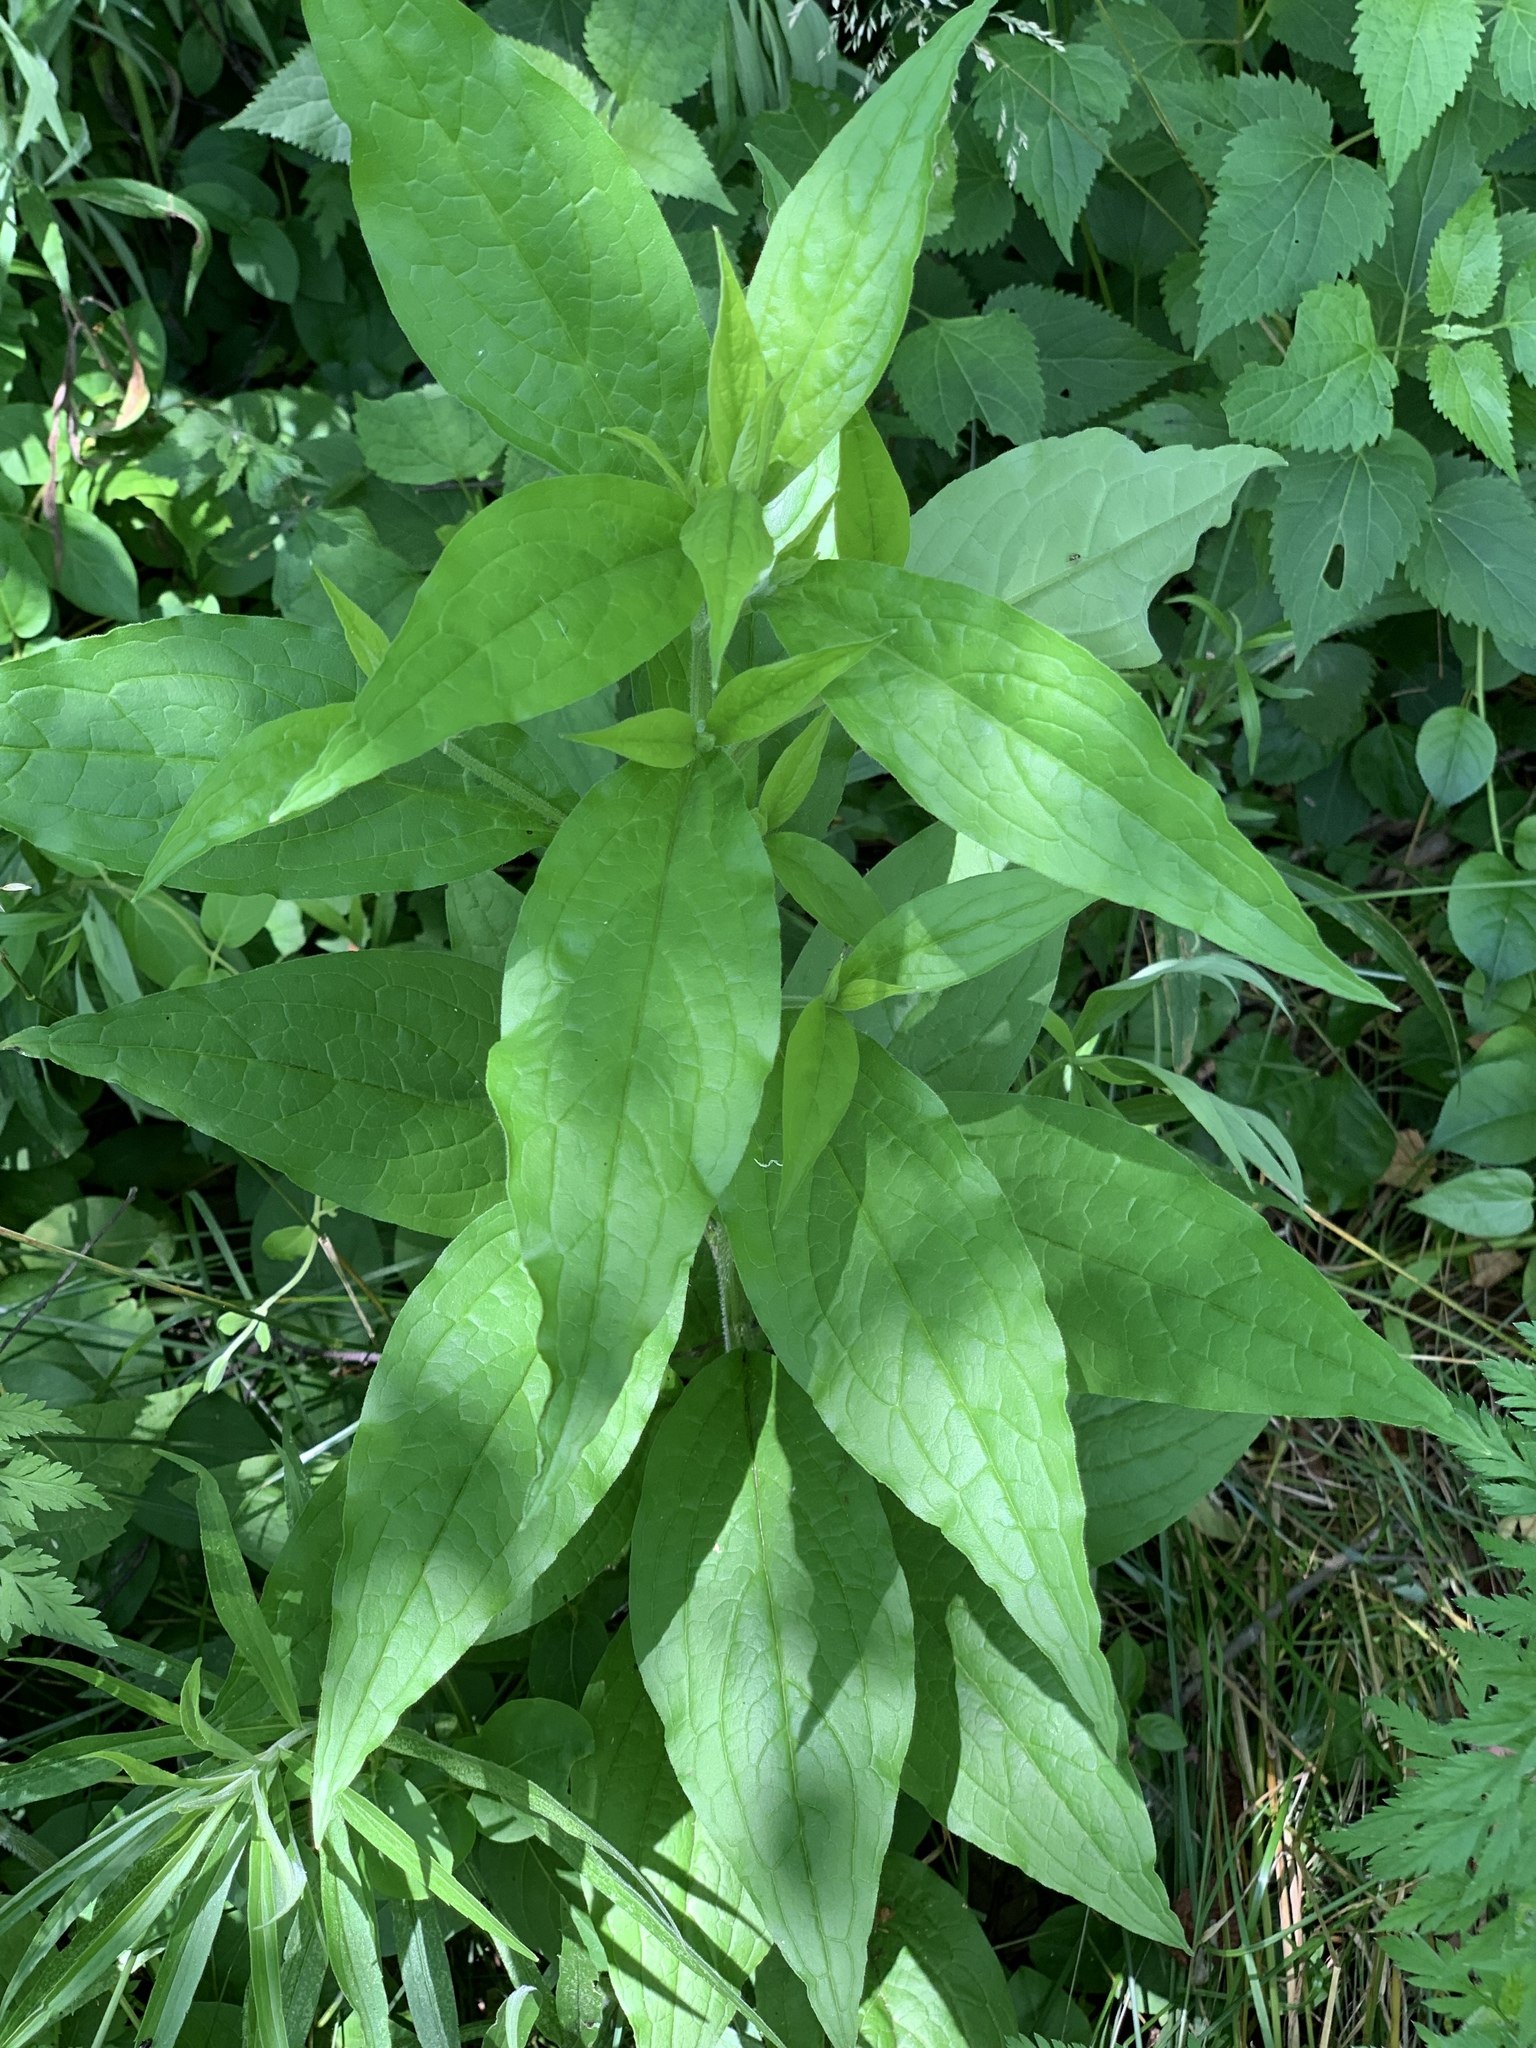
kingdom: Plantae
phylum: Tracheophyta
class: Magnoliopsida
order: Boraginales
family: Boraginaceae
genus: Hackelia
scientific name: Hackelia virginiana
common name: Beggar's-lice
